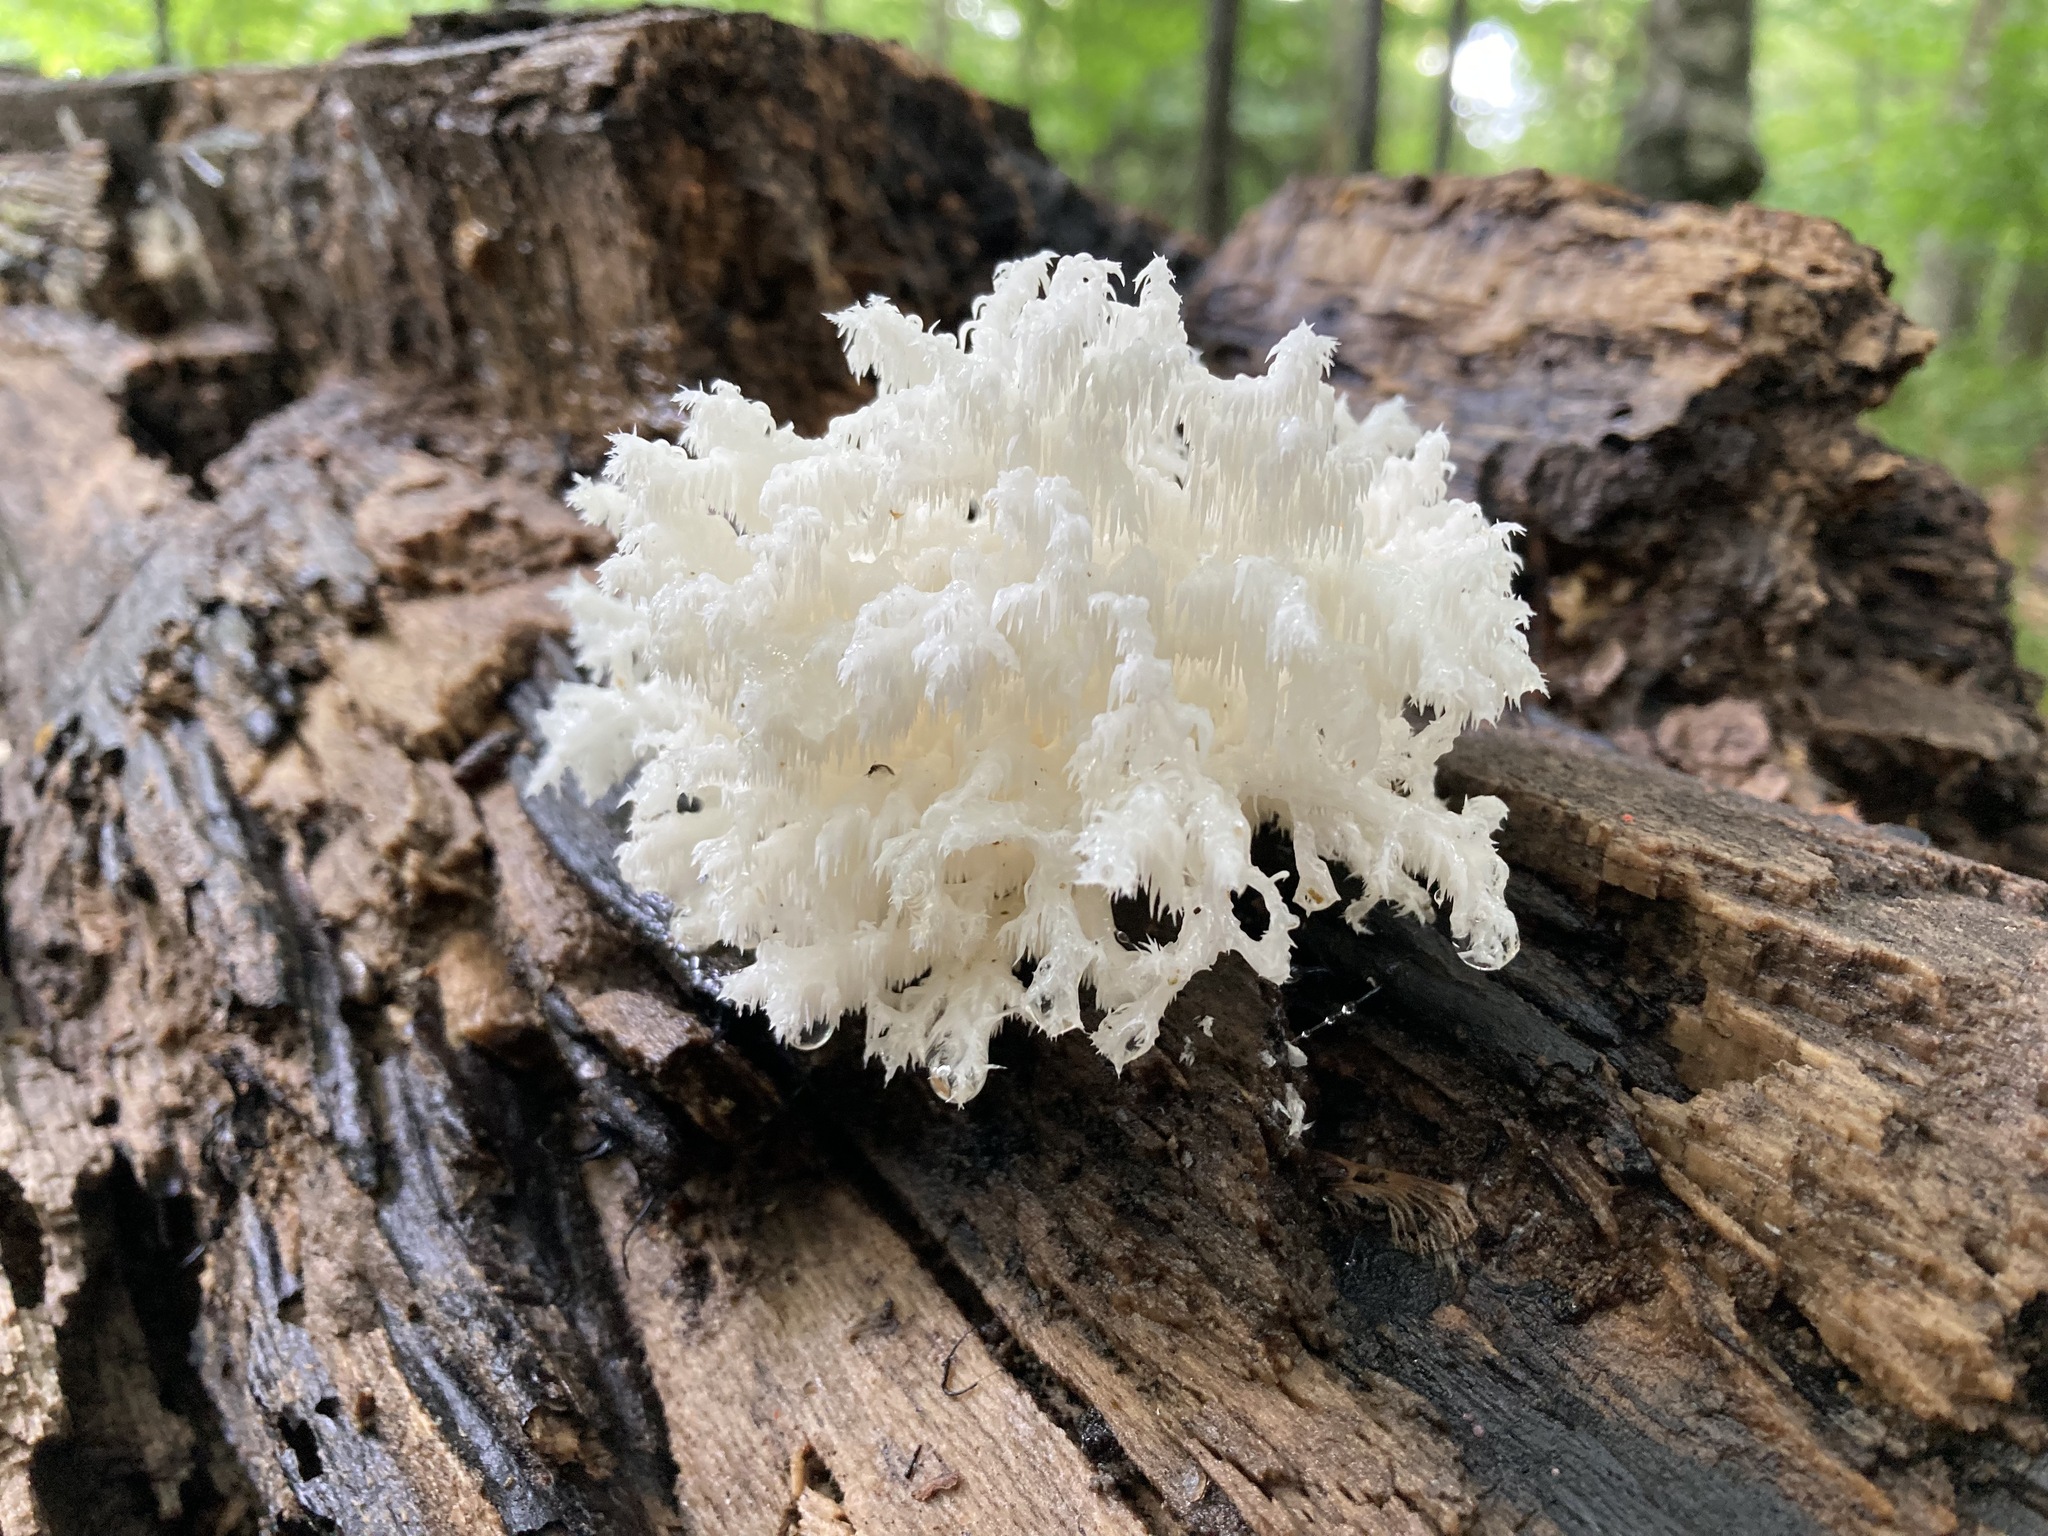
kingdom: Fungi
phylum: Basidiomycota
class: Agaricomycetes
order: Russulales
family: Hericiaceae
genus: Hericium
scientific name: Hericium coralloides
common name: Coral tooth
